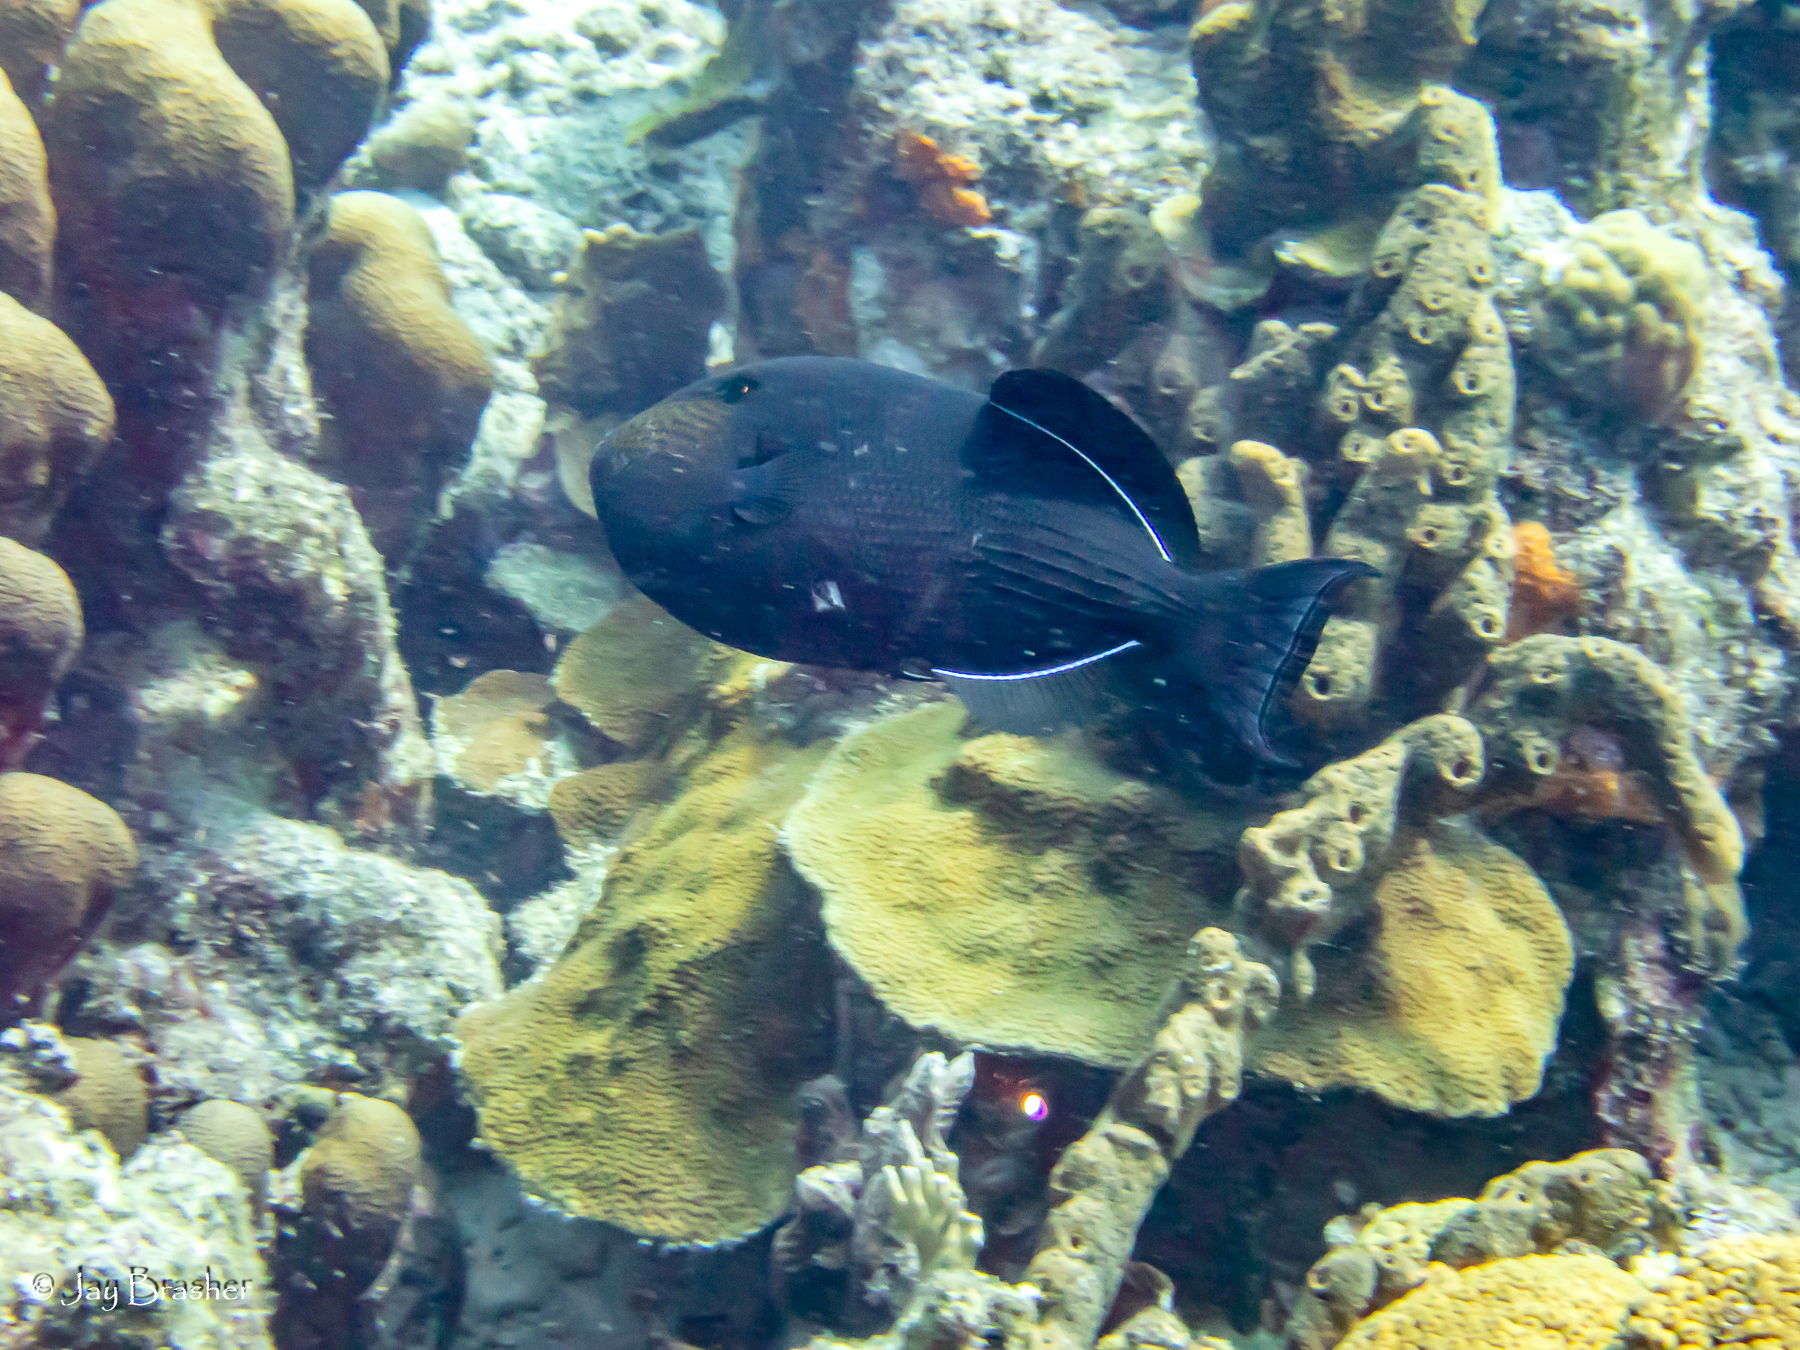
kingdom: Animalia
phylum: Porifera
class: Demospongiae
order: Agelasida
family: Agelasidae
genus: Agelas
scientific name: Agelas conifera
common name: Brown tube sponge
